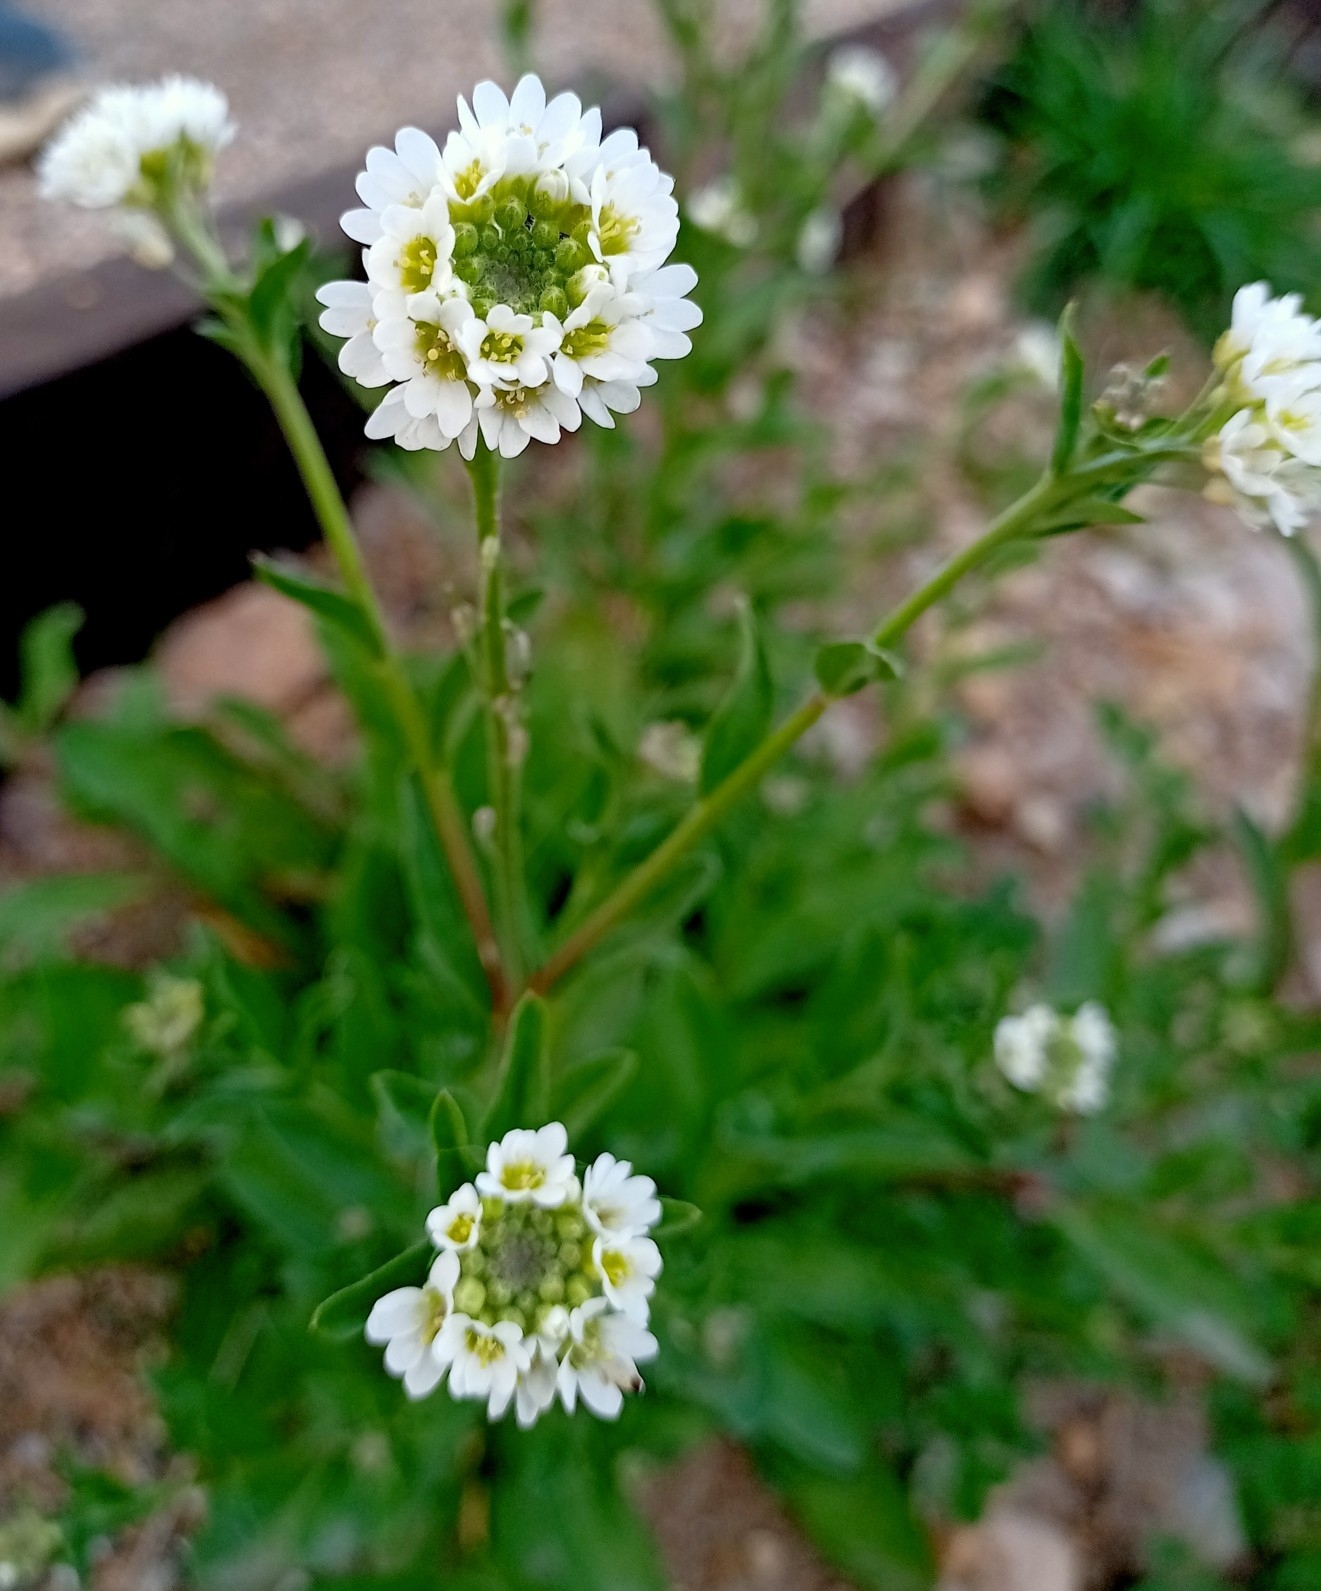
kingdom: Plantae
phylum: Tracheophyta
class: Magnoliopsida
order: Brassicales
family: Brassicaceae
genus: Berteroa
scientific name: Berteroa incana
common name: Hoary alison
